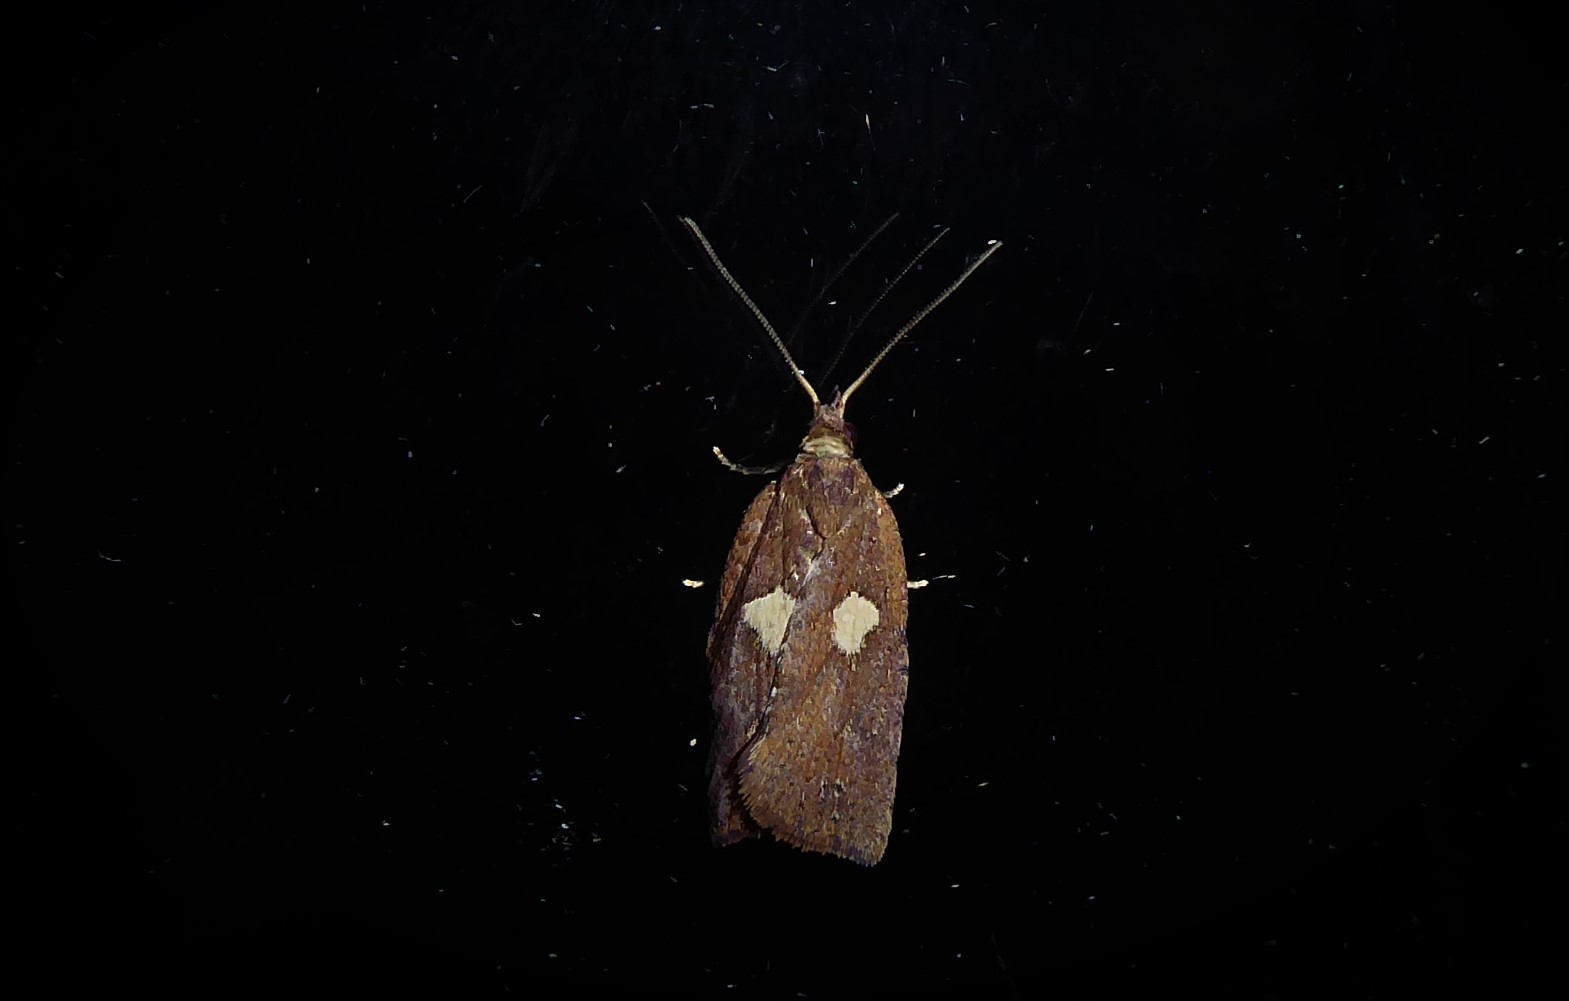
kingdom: Animalia
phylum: Arthropoda
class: Insecta
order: Lepidoptera
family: Tortricidae
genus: Planotortrix
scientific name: Planotortrix excessana
